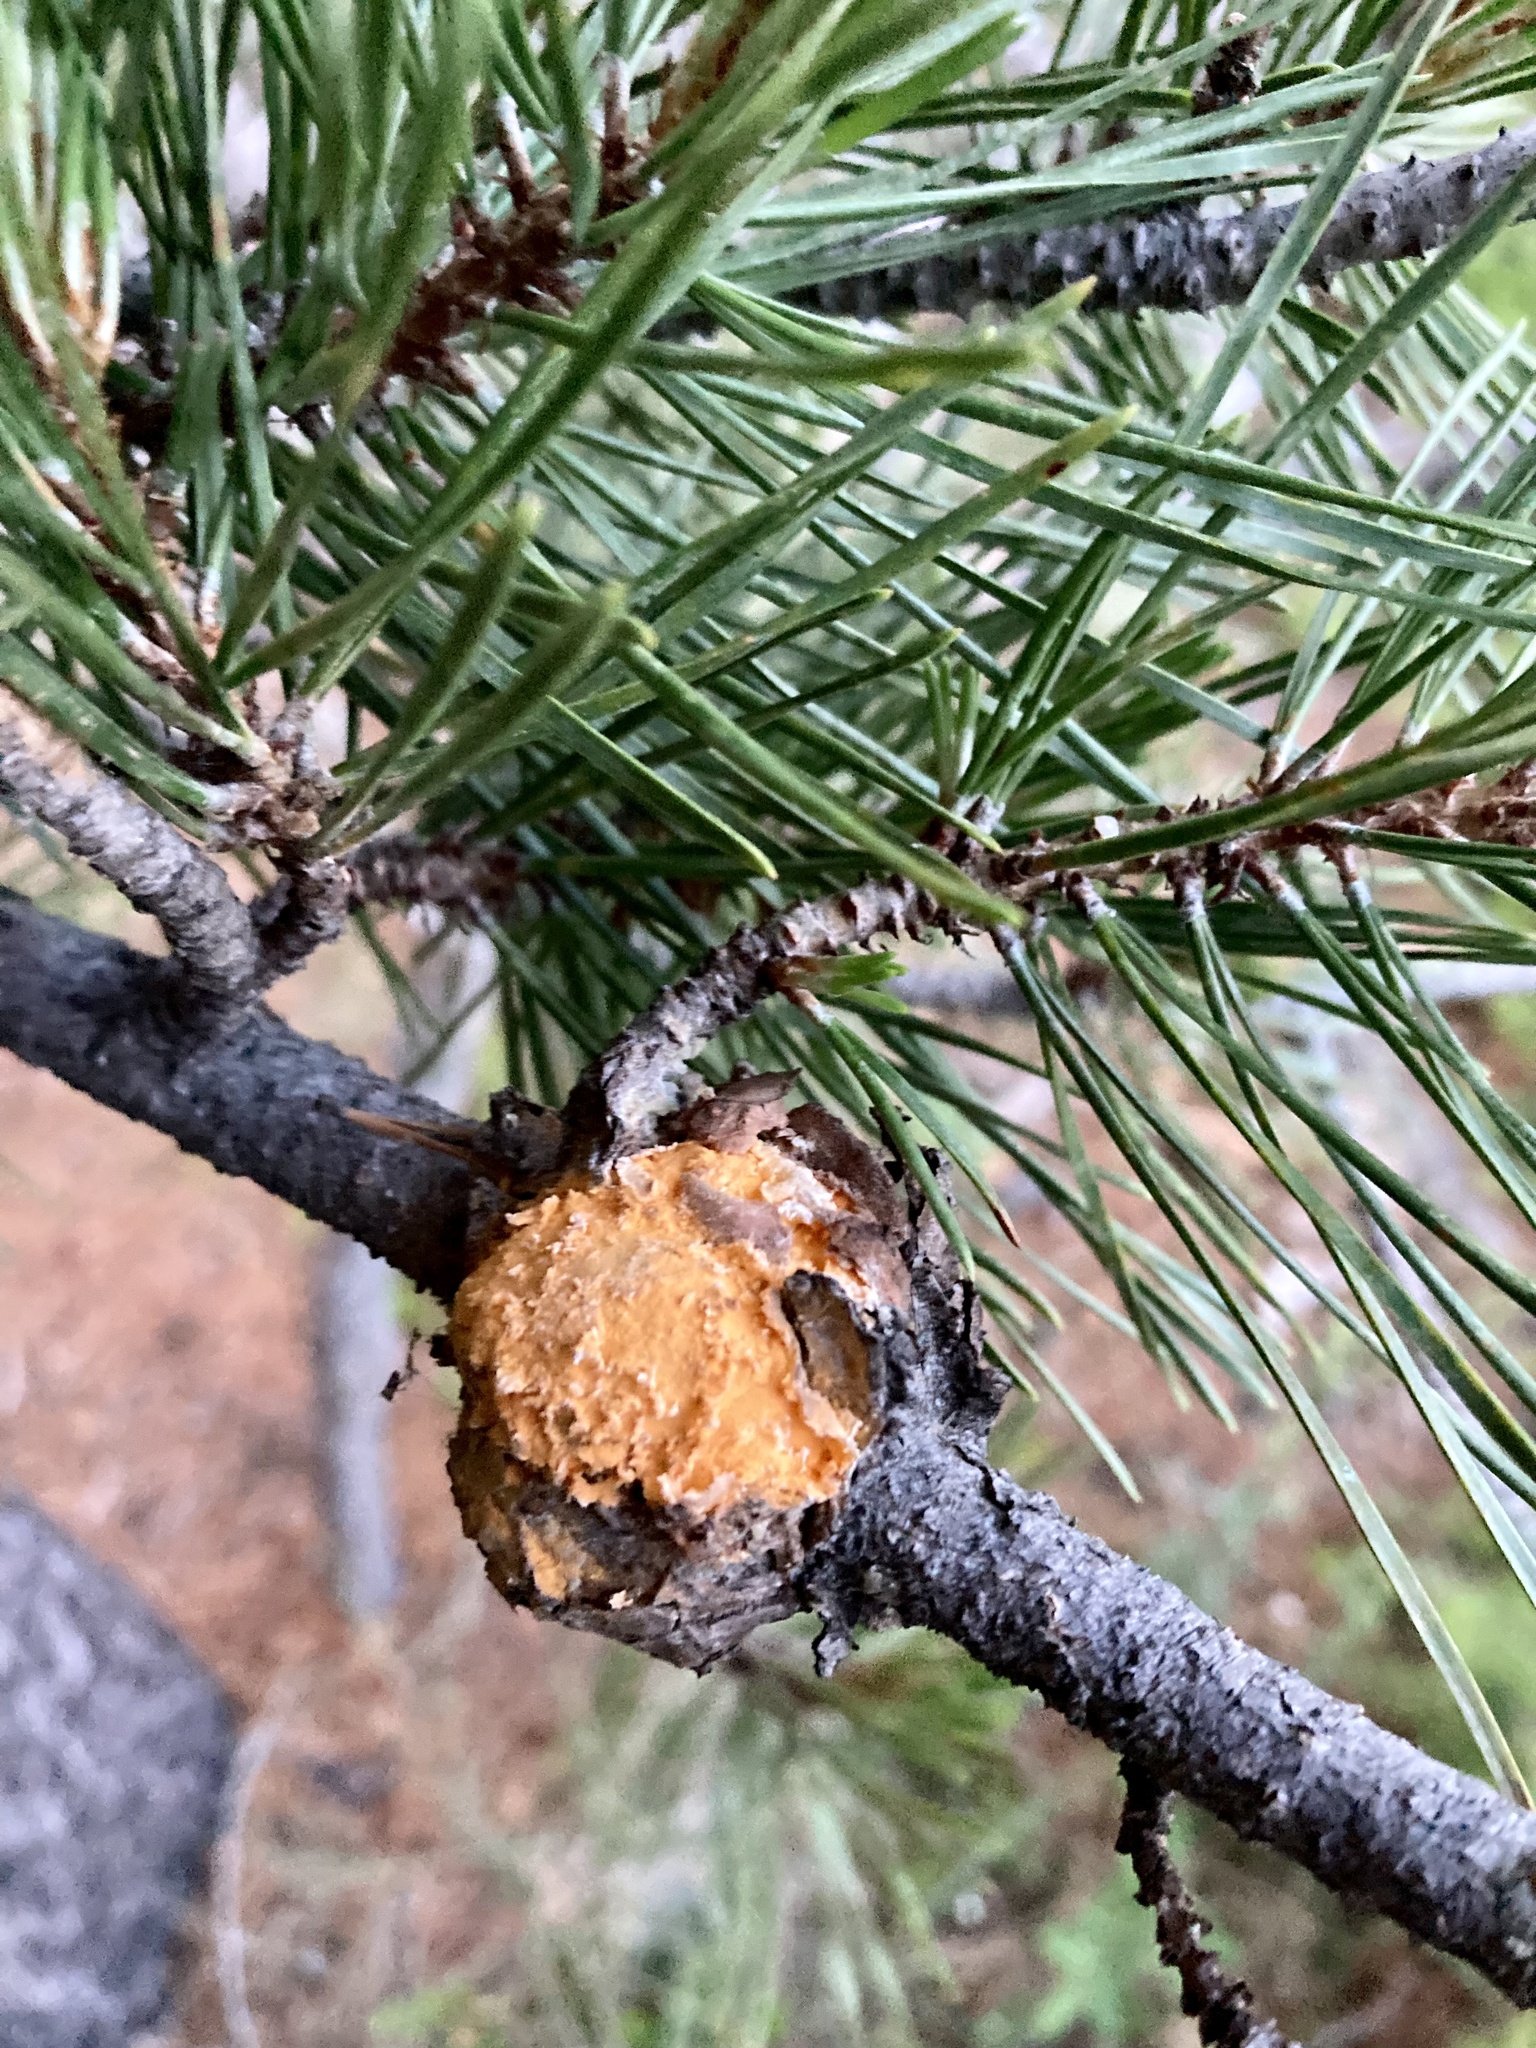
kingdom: Fungi
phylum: Basidiomycota
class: Pucciniomycetes
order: Pucciniales
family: Cronartiaceae
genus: Cronartium
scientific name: Cronartium harknessii
